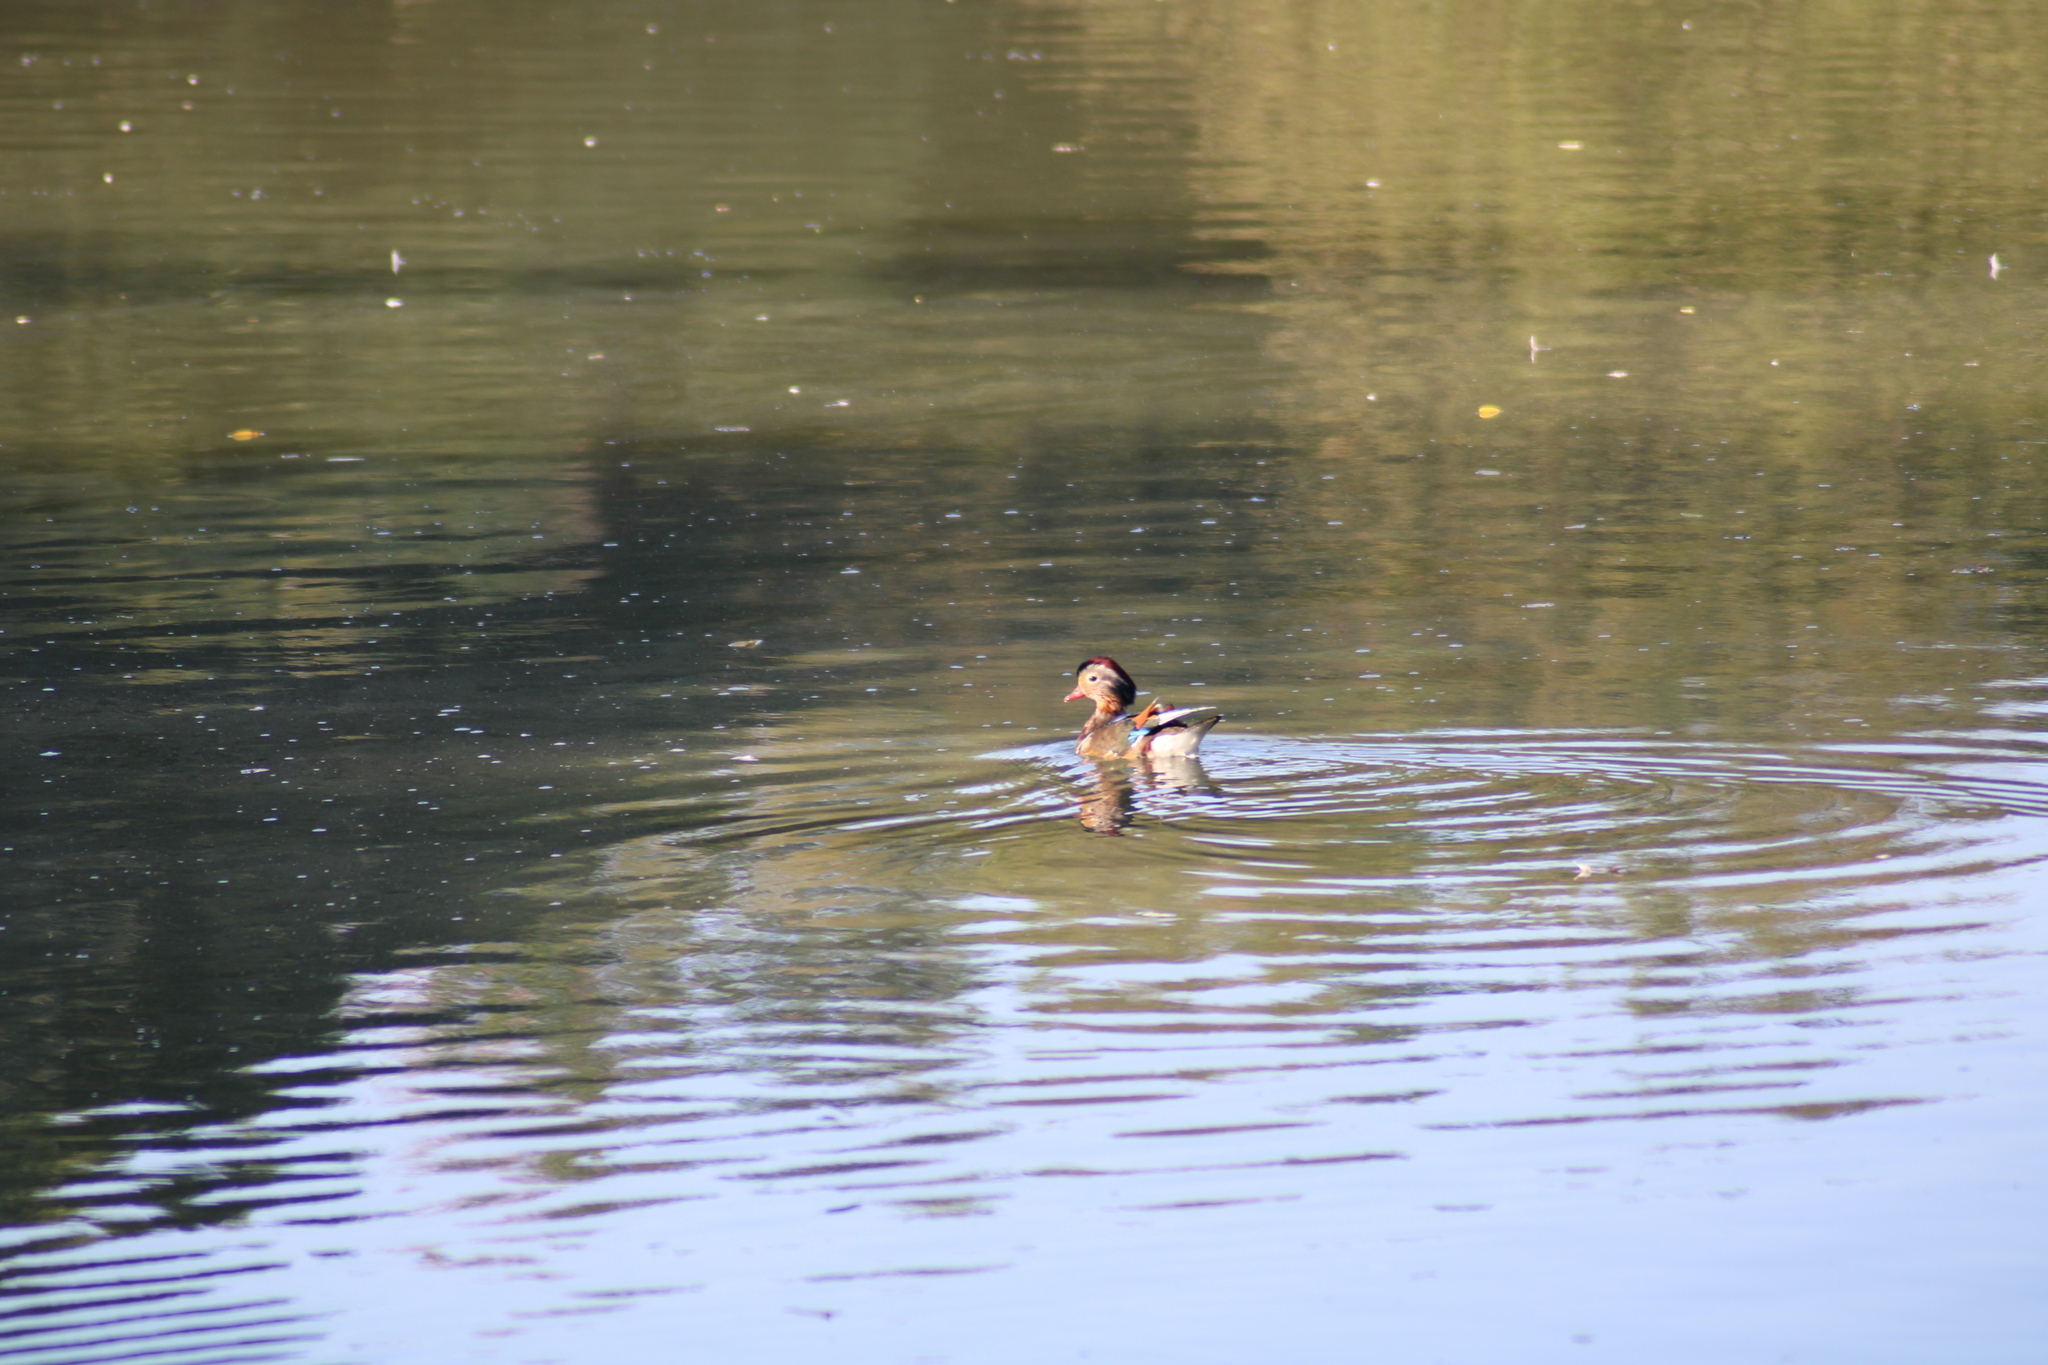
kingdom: Animalia
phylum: Chordata
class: Aves
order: Anseriformes
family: Anatidae
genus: Aix
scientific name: Aix galericulata
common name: Mandarin duck
